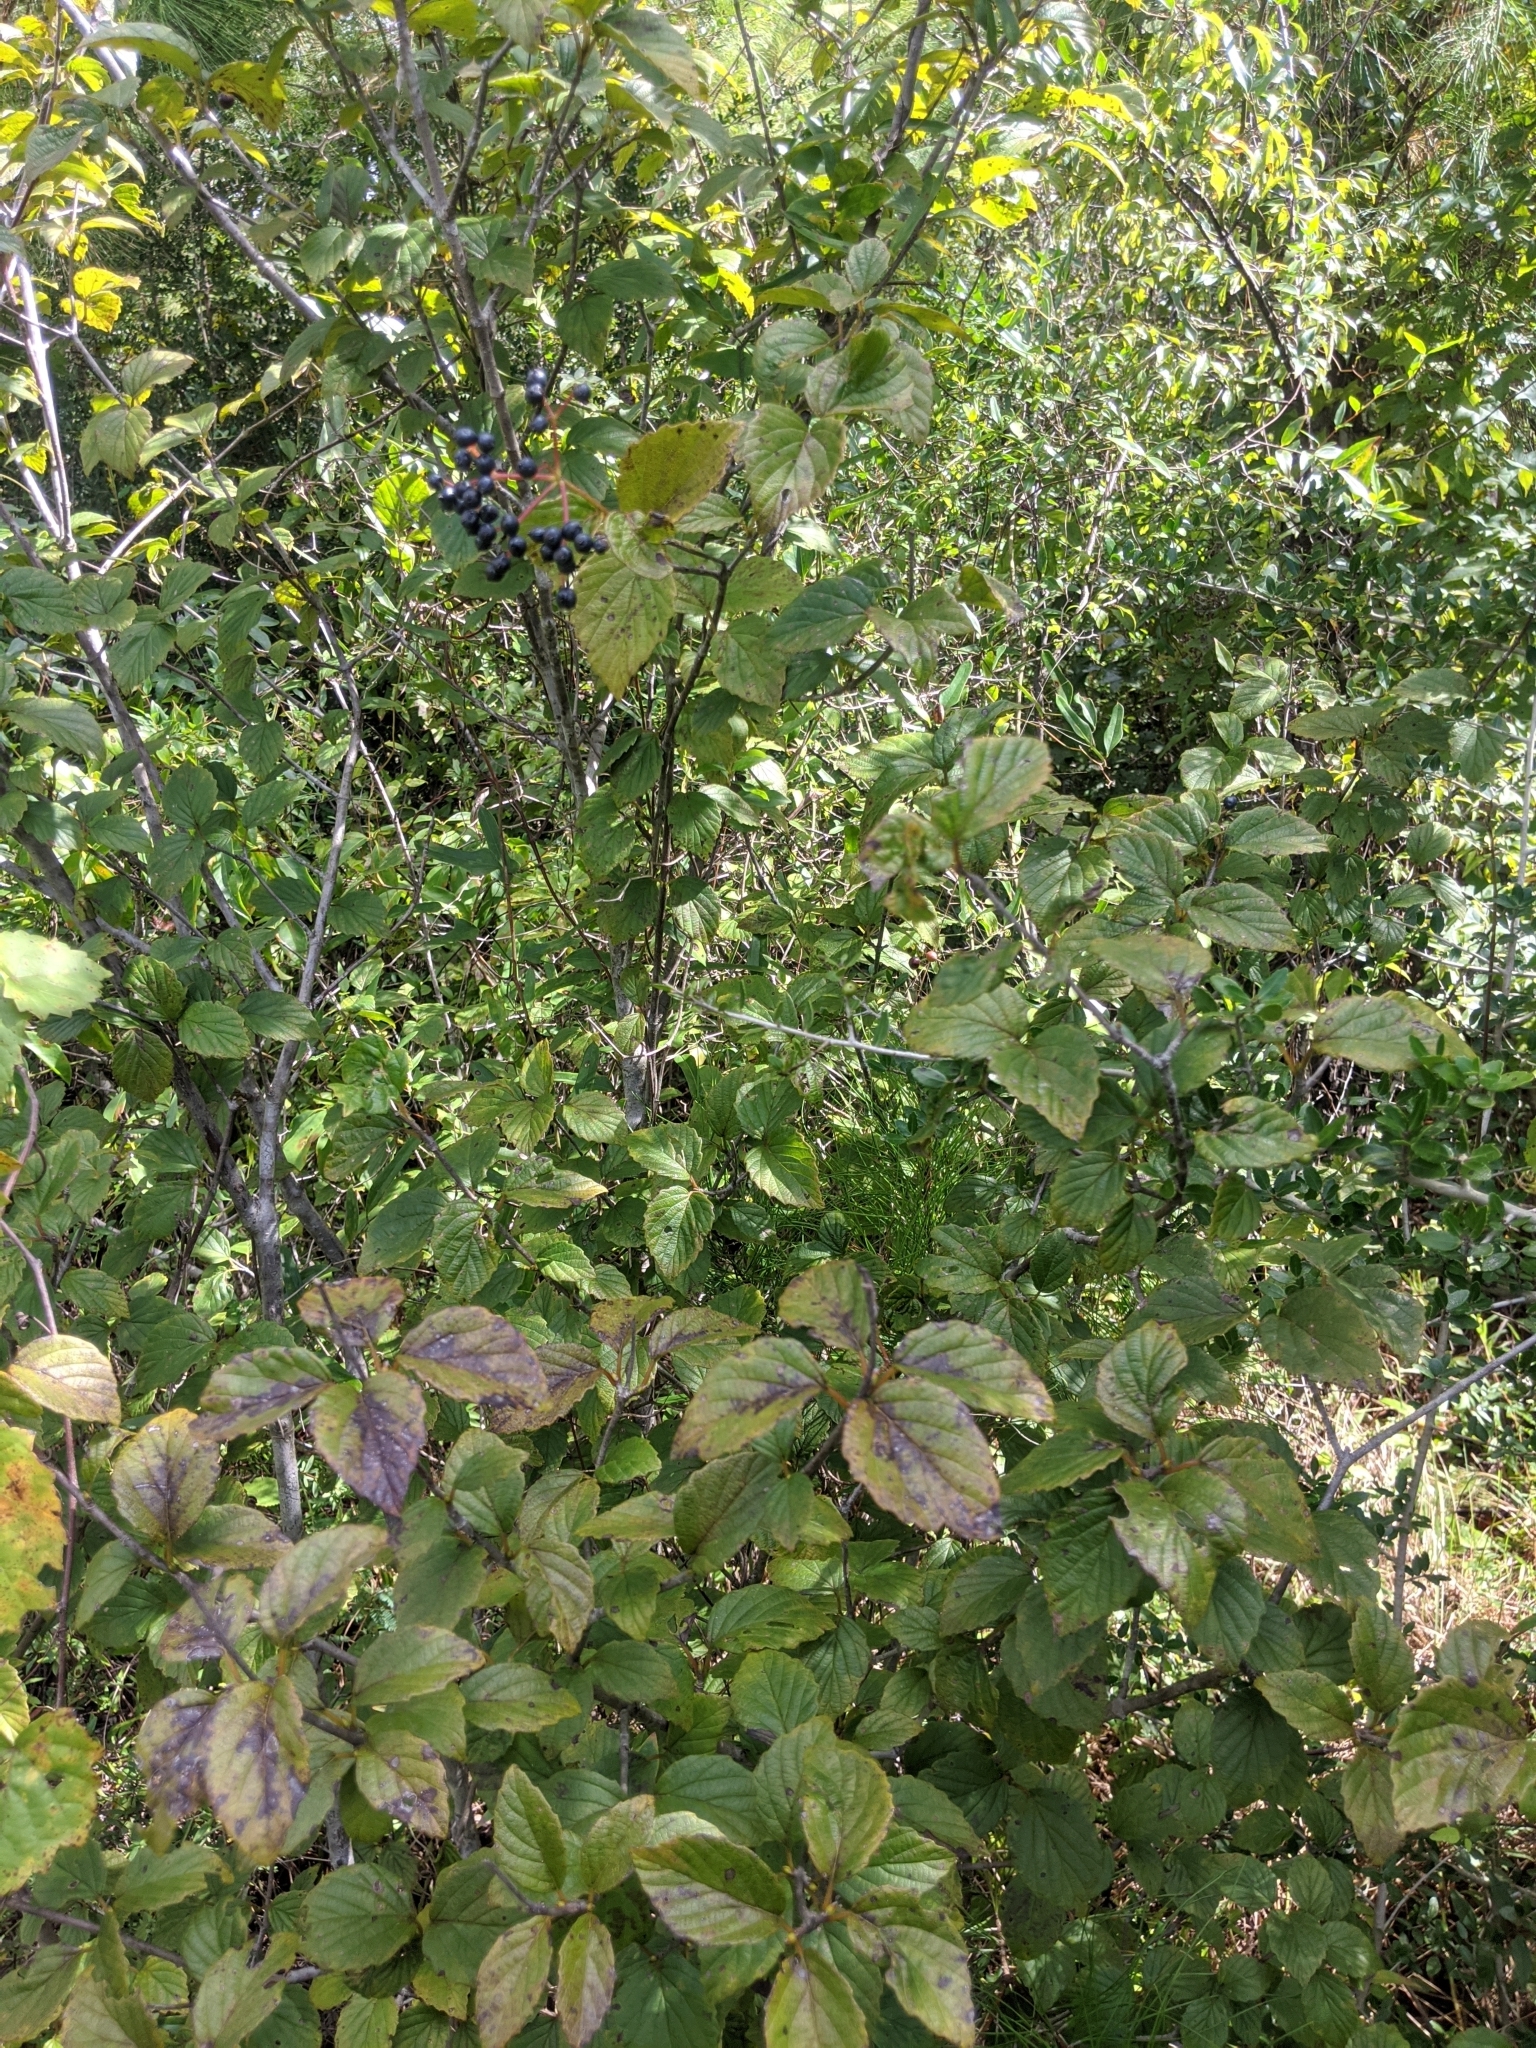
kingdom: Plantae
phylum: Tracheophyta
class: Magnoliopsida
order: Dipsacales
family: Viburnaceae
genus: Viburnum
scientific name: Viburnum scabrellum
